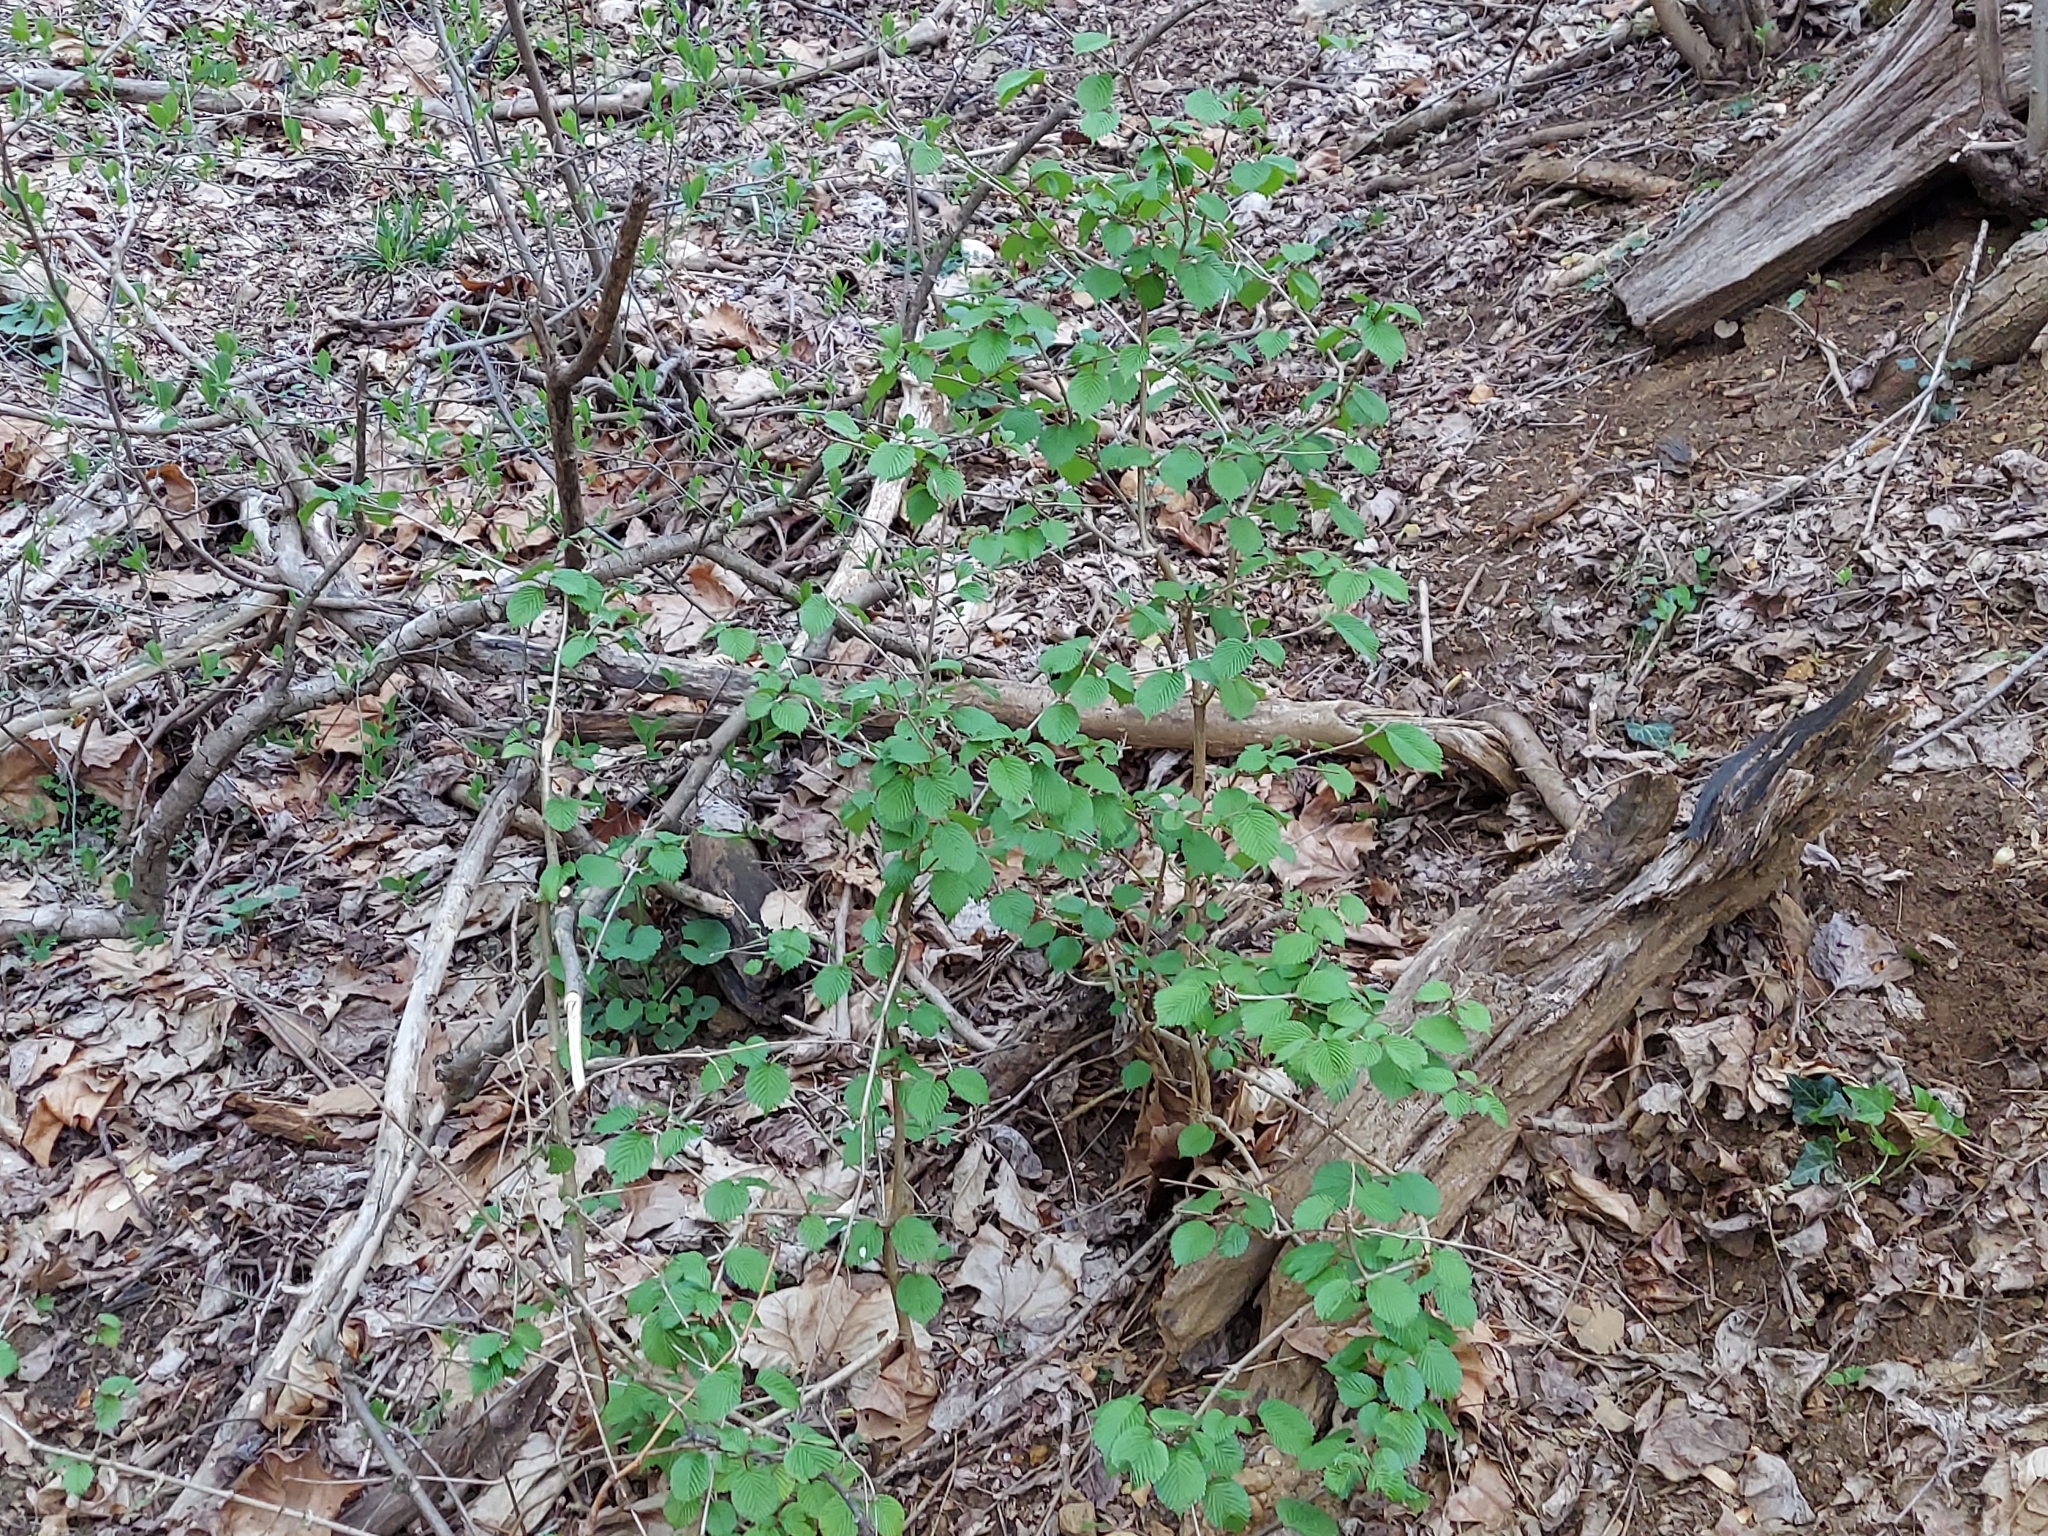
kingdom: Plantae
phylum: Tracheophyta
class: Magnoliopsida
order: Dipsacales
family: Viburnaceae
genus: Viburnum
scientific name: Viburnum plicatum
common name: Japanese snowball
